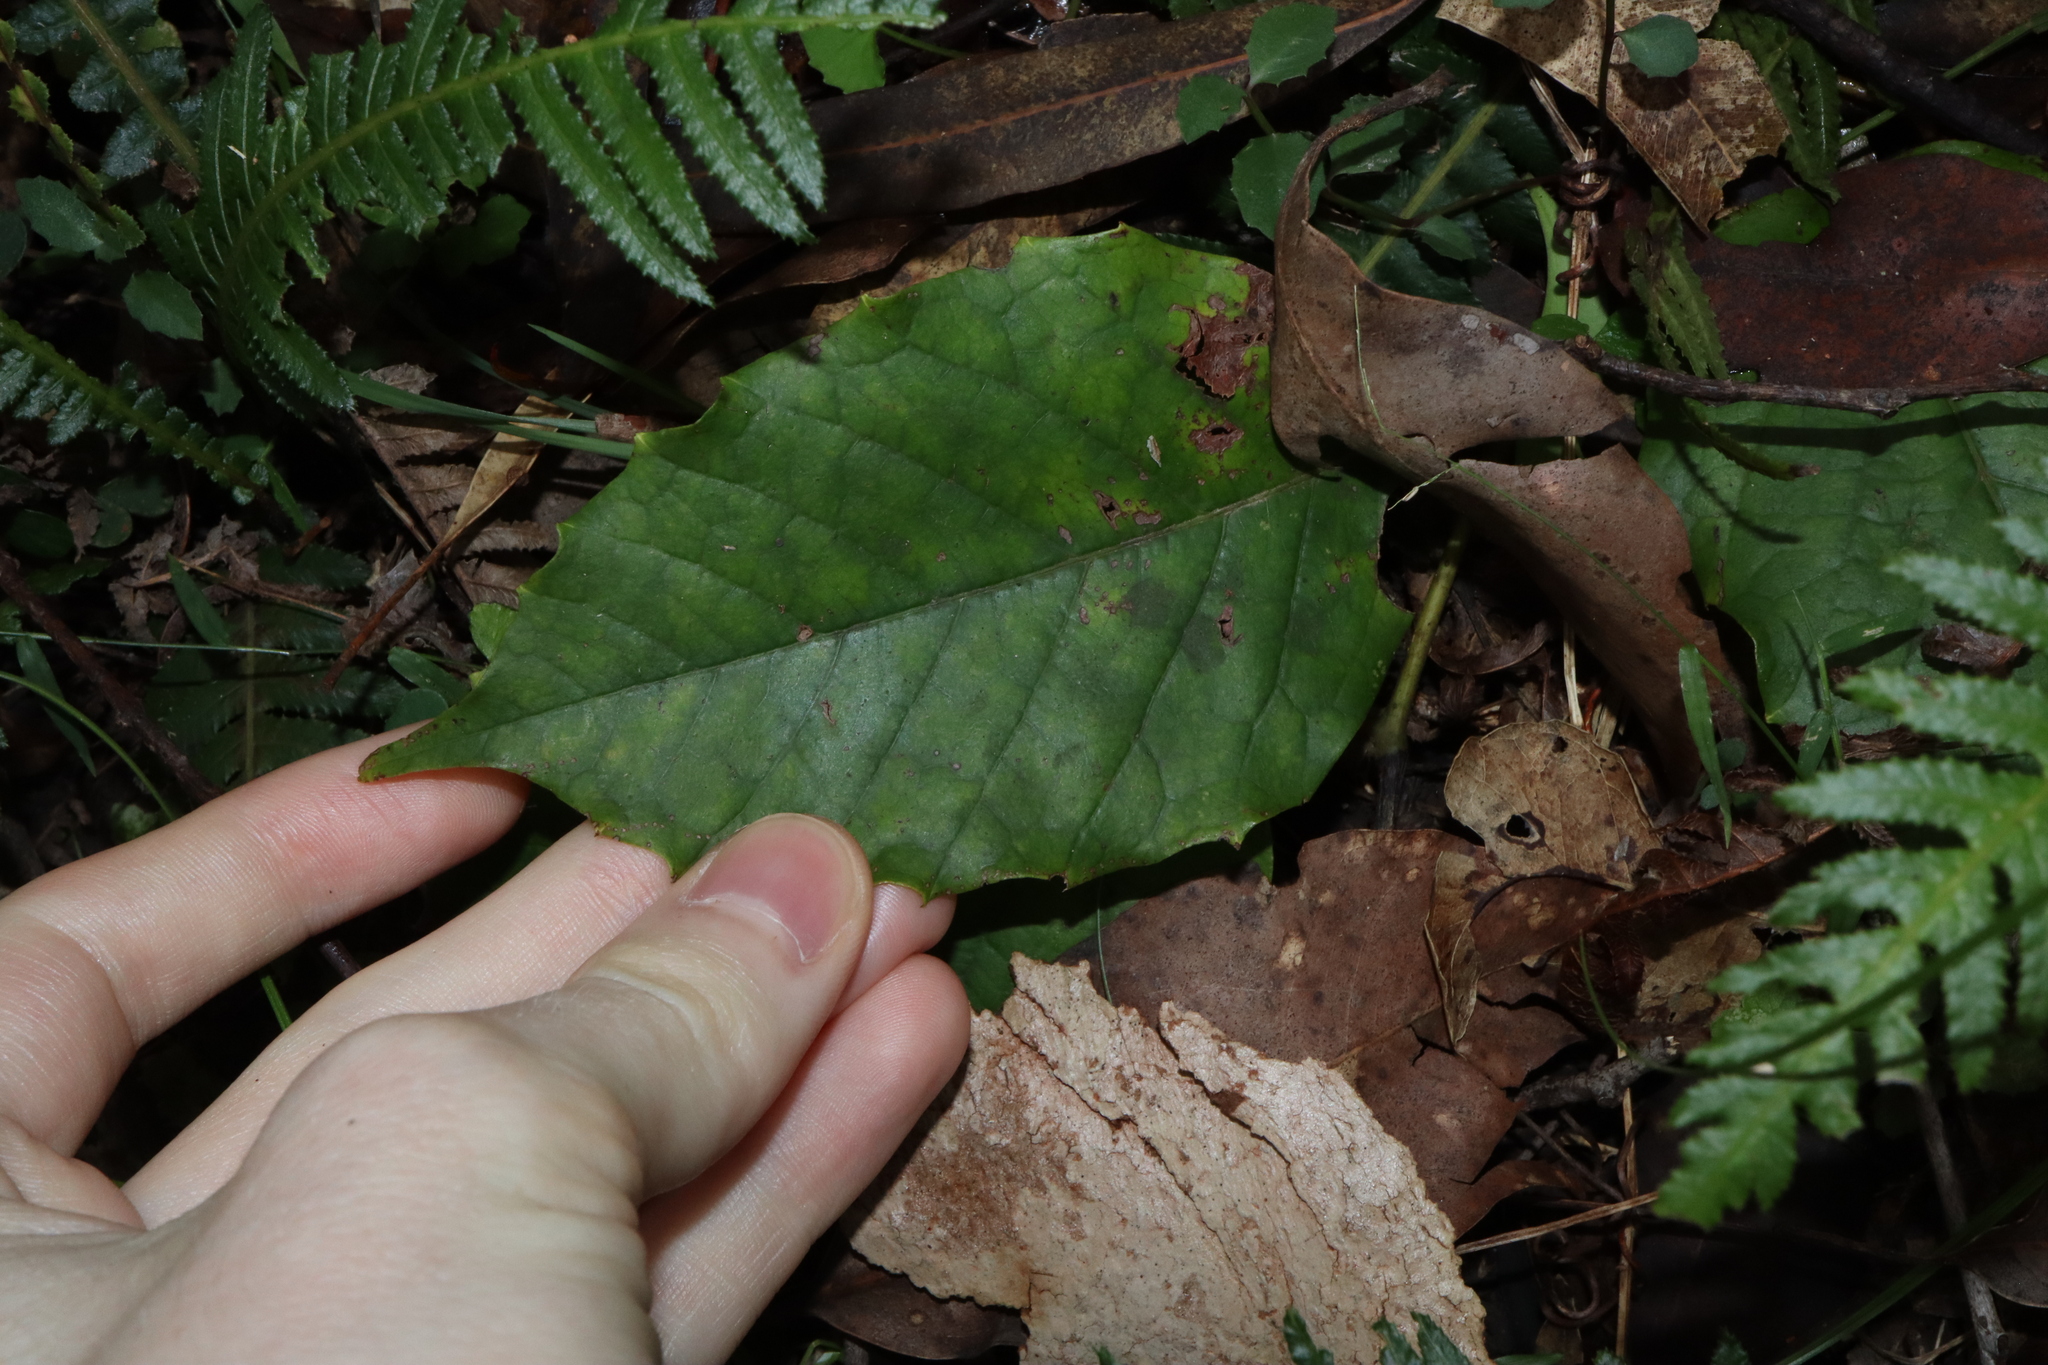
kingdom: Plantae
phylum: Tracheophyta
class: Magnoliopsida
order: Vitales
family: Vitaceae
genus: Cissus
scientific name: Cissus antarctica
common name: Kangaroo vine
